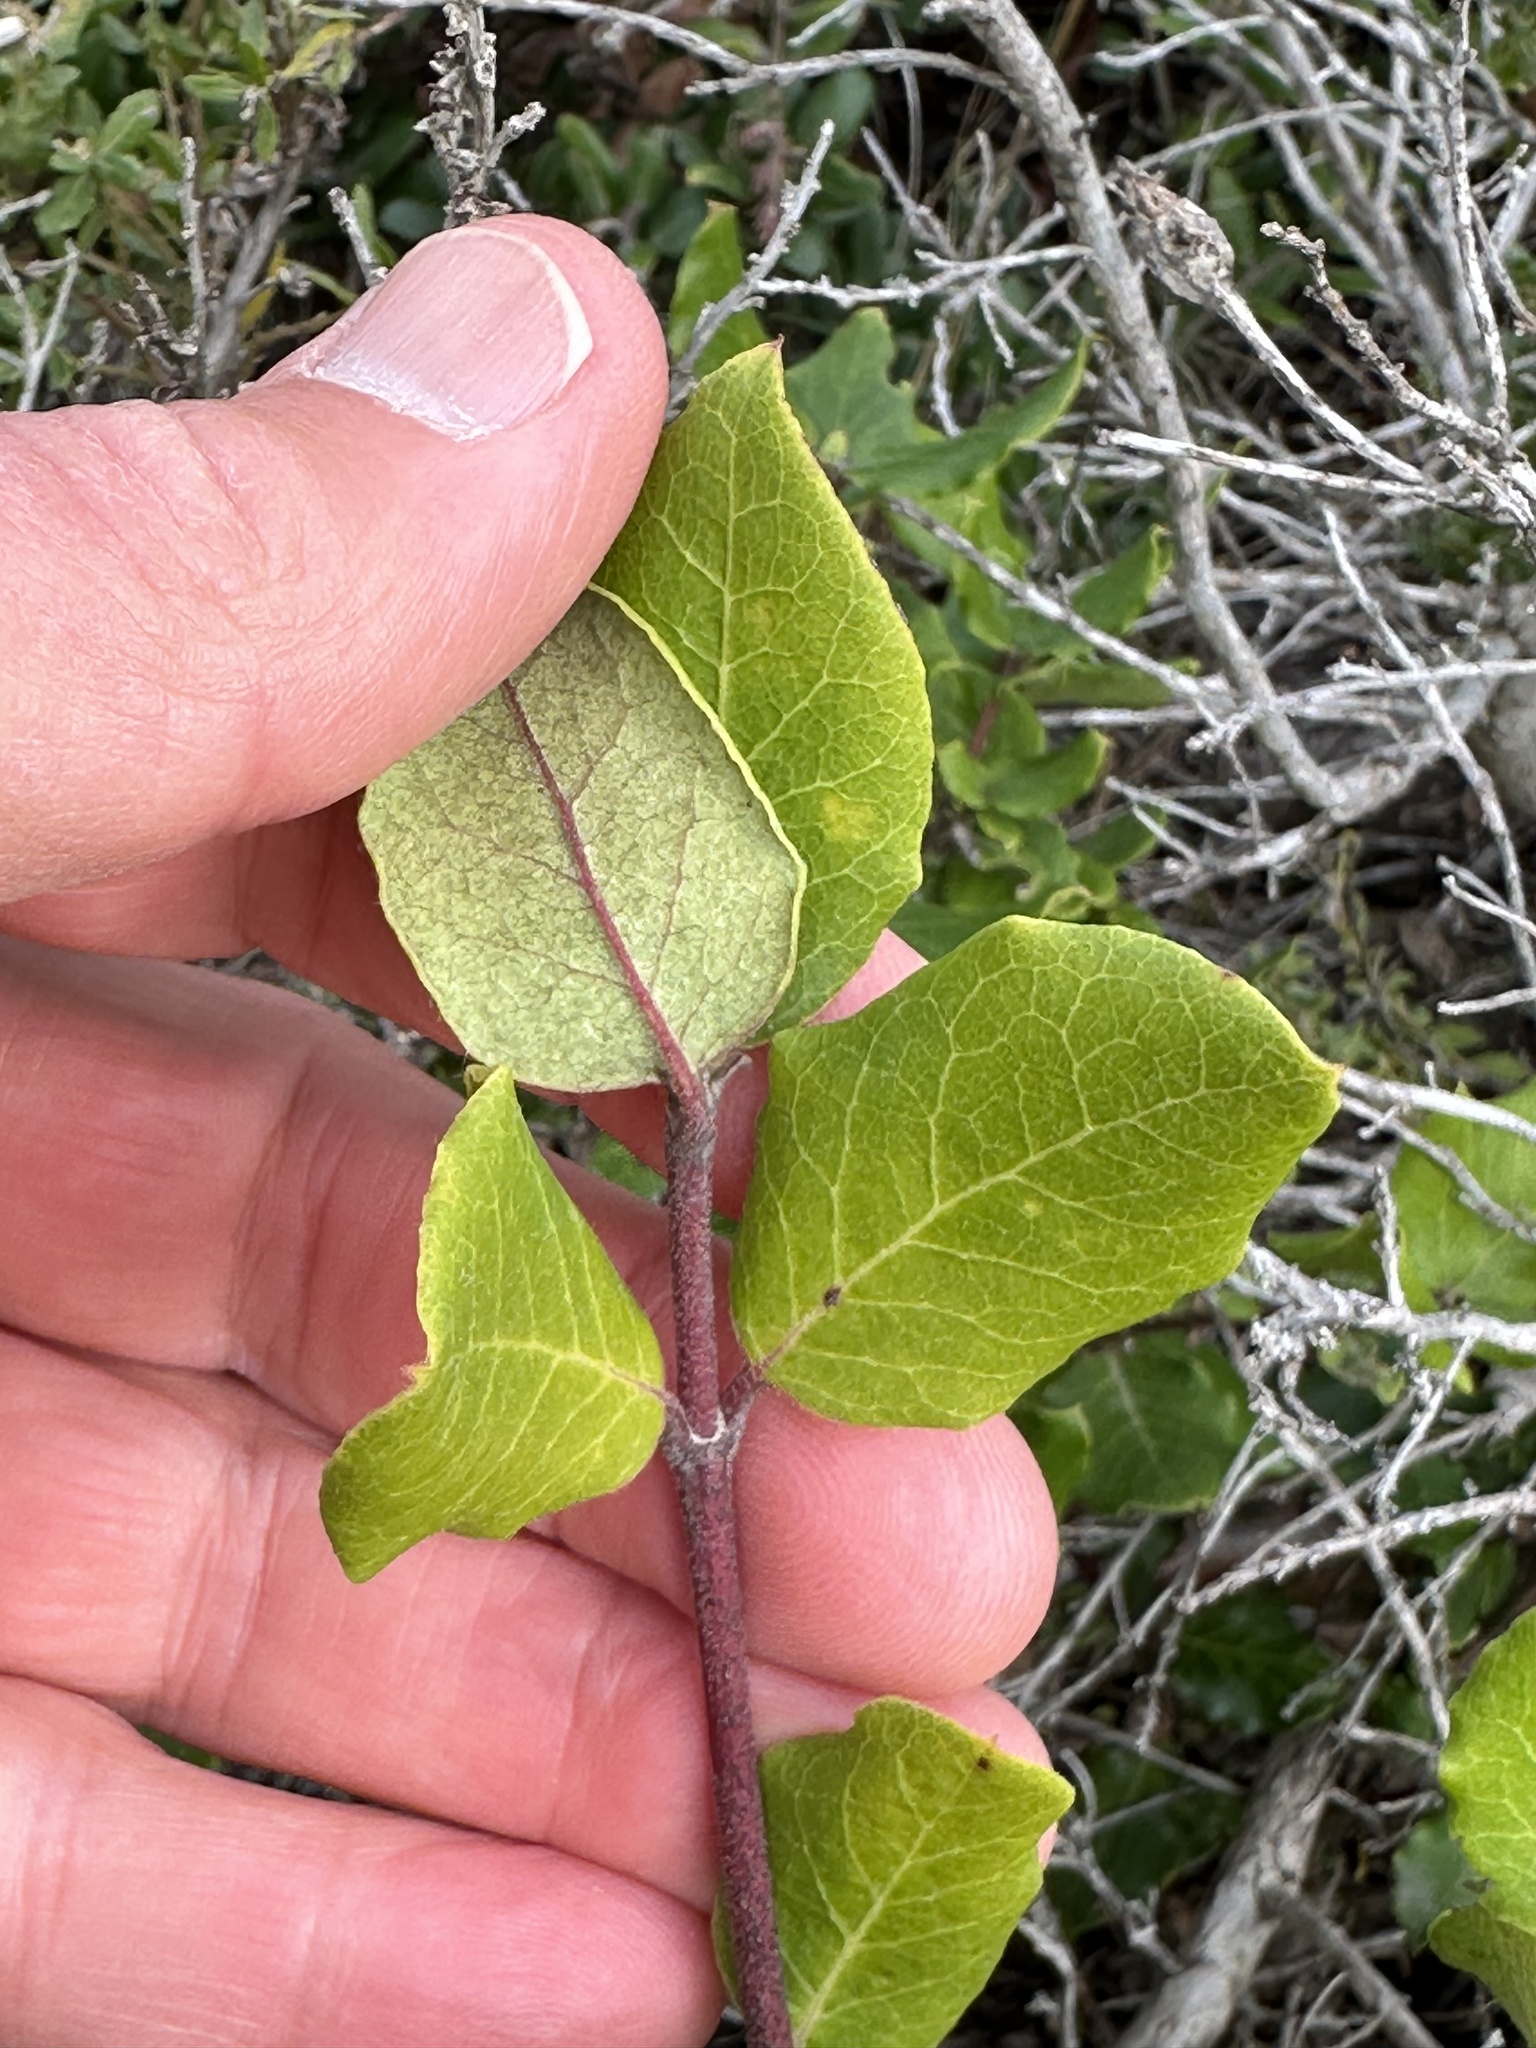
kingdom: Plantae
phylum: Tracheophyta
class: Magnoliopsida
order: Garryales
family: Garryaceae
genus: Garrya
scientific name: Garrya elliptica
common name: Silk-tassel
